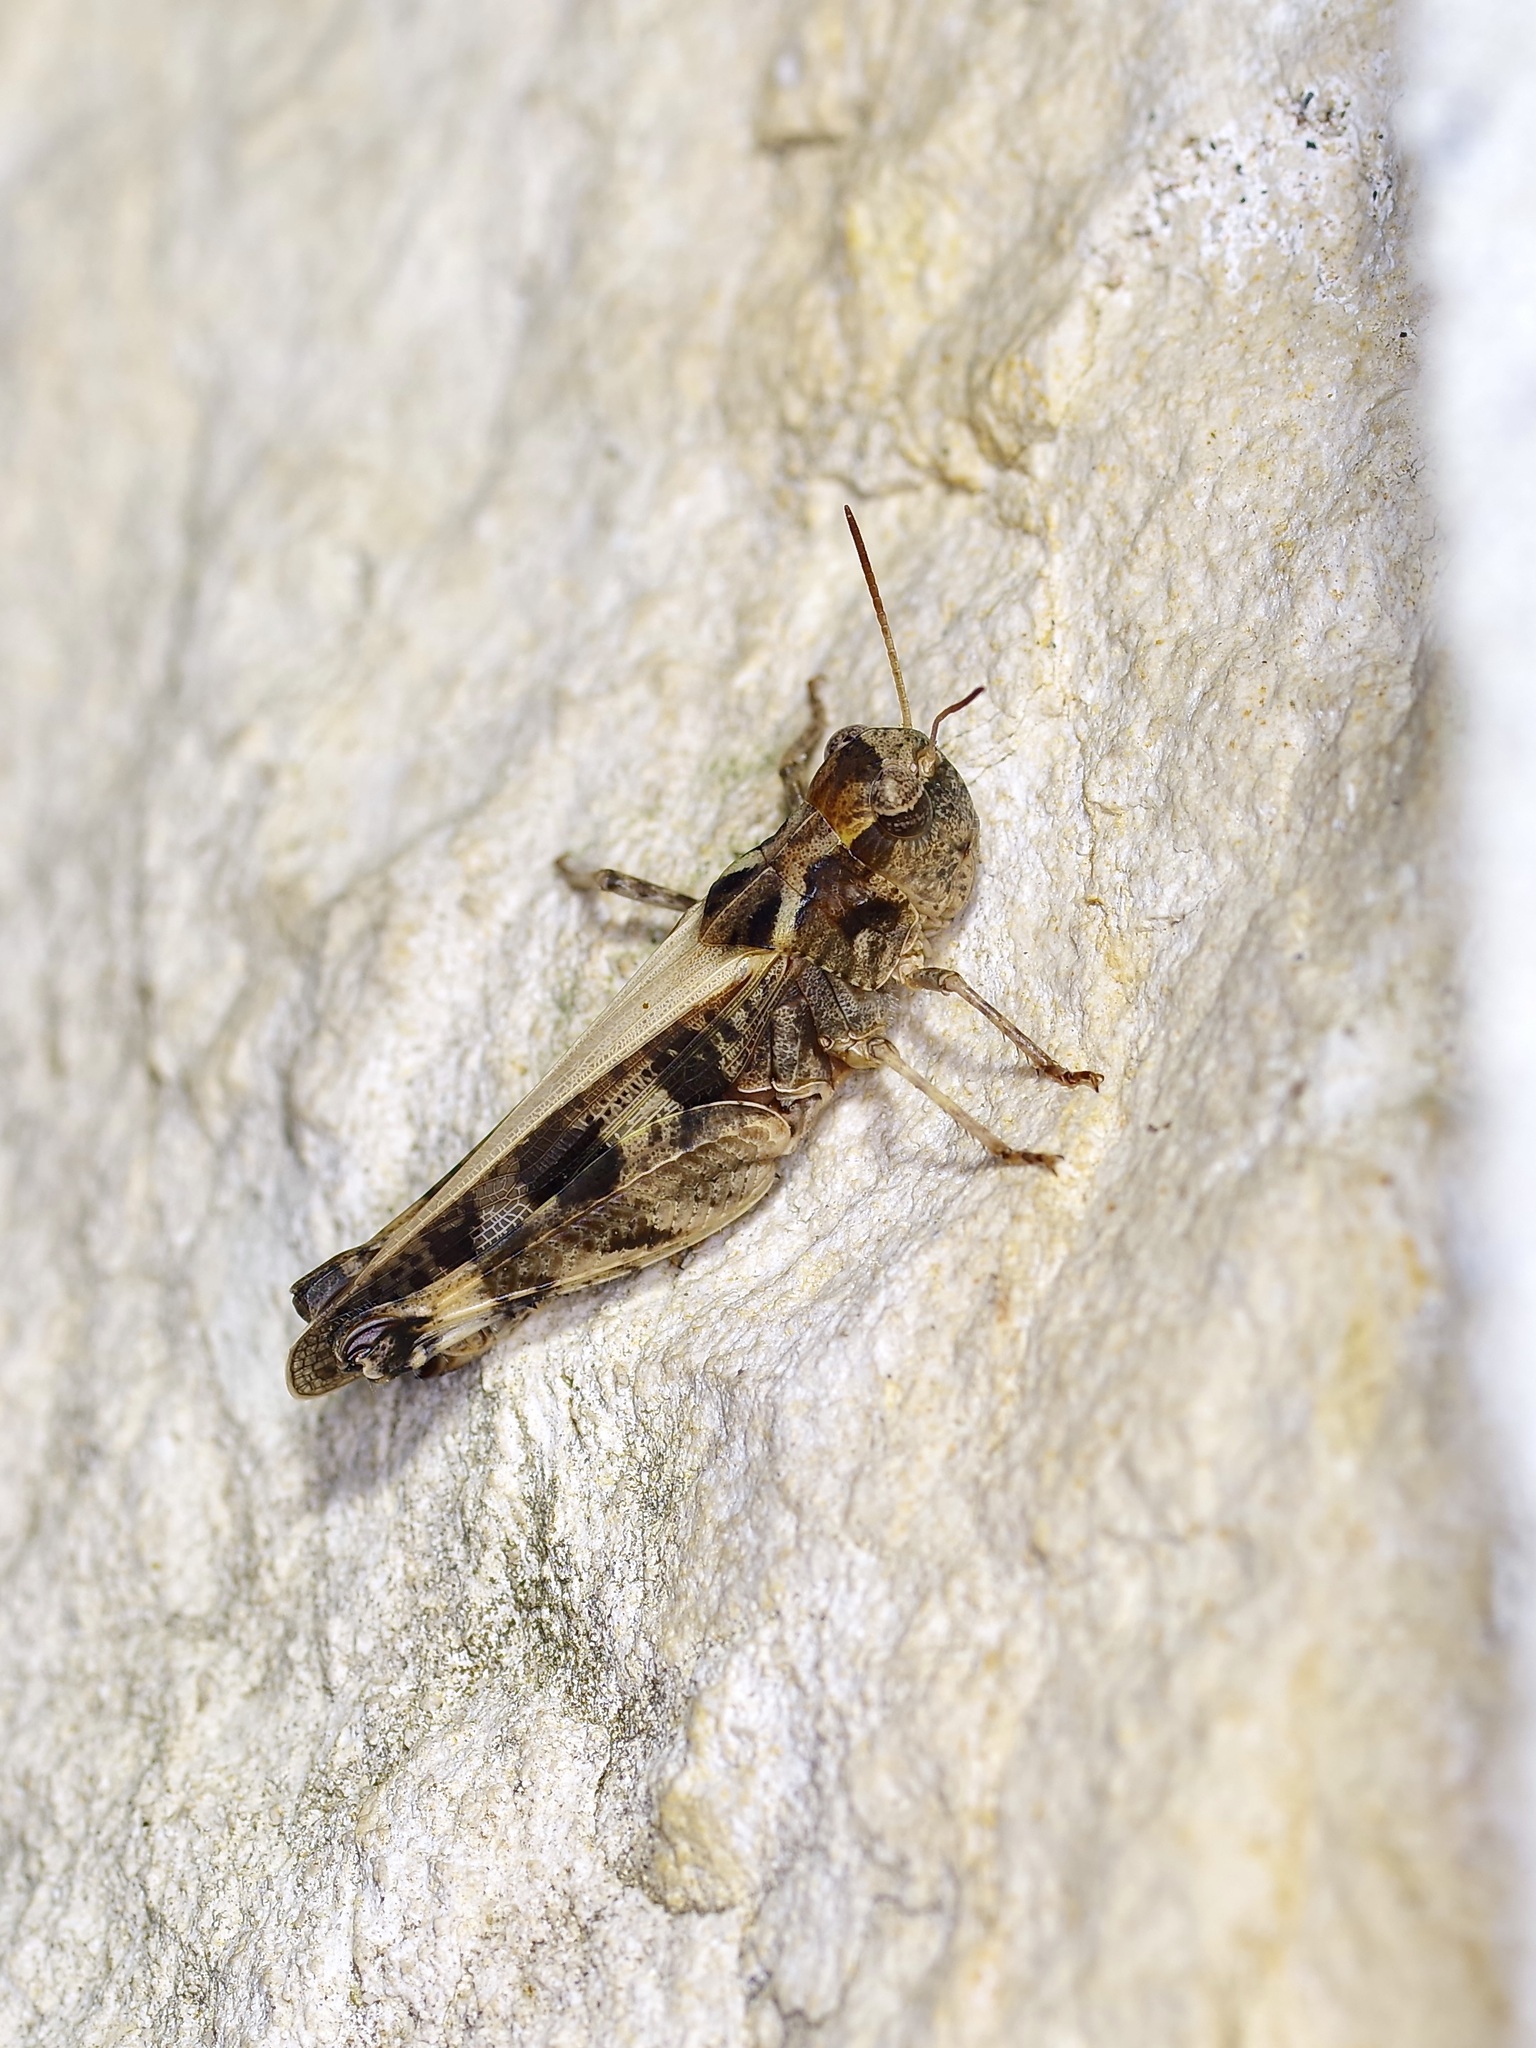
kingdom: Animalia
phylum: Arthropoda
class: Insecta
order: Orthoptera
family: Acrididae
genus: Encoptolophus
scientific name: Encoptolophus costalis
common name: Dusky grasshopper
